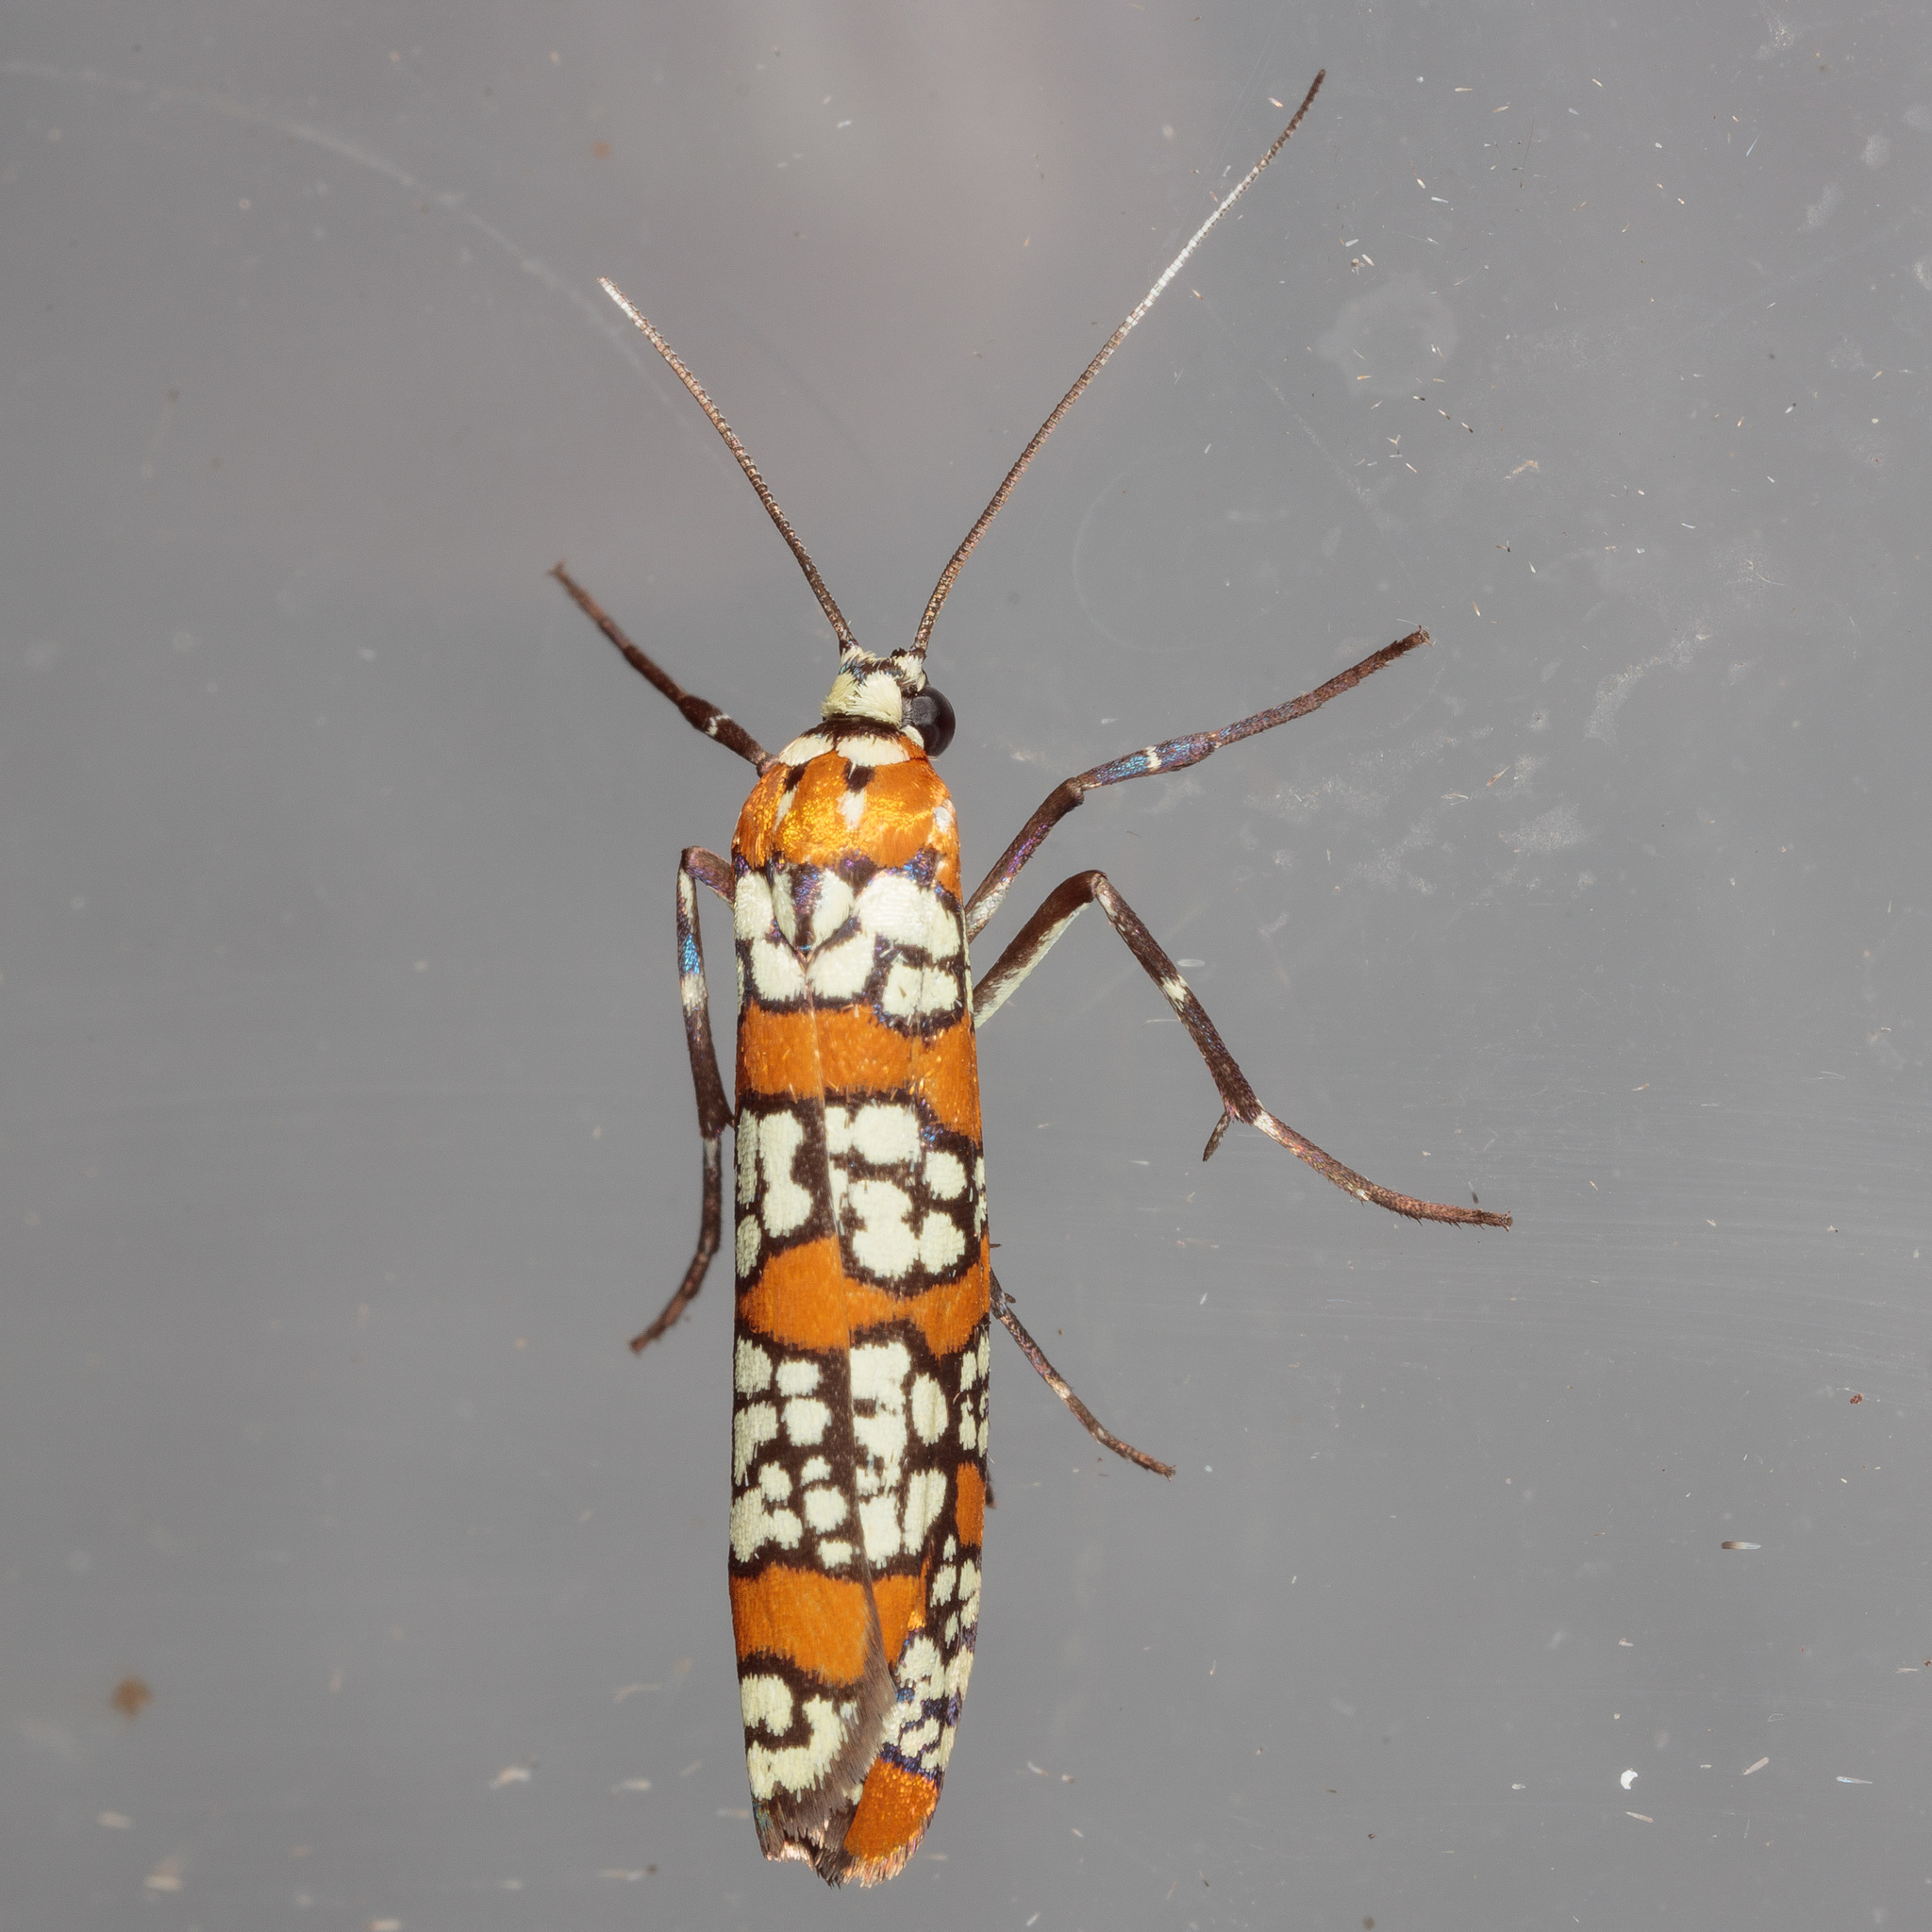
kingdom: Animalia
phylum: Arthropoda
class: Insecta
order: Lepidoptera
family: Attevidae
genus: Atteva
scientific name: Atteva punctella
